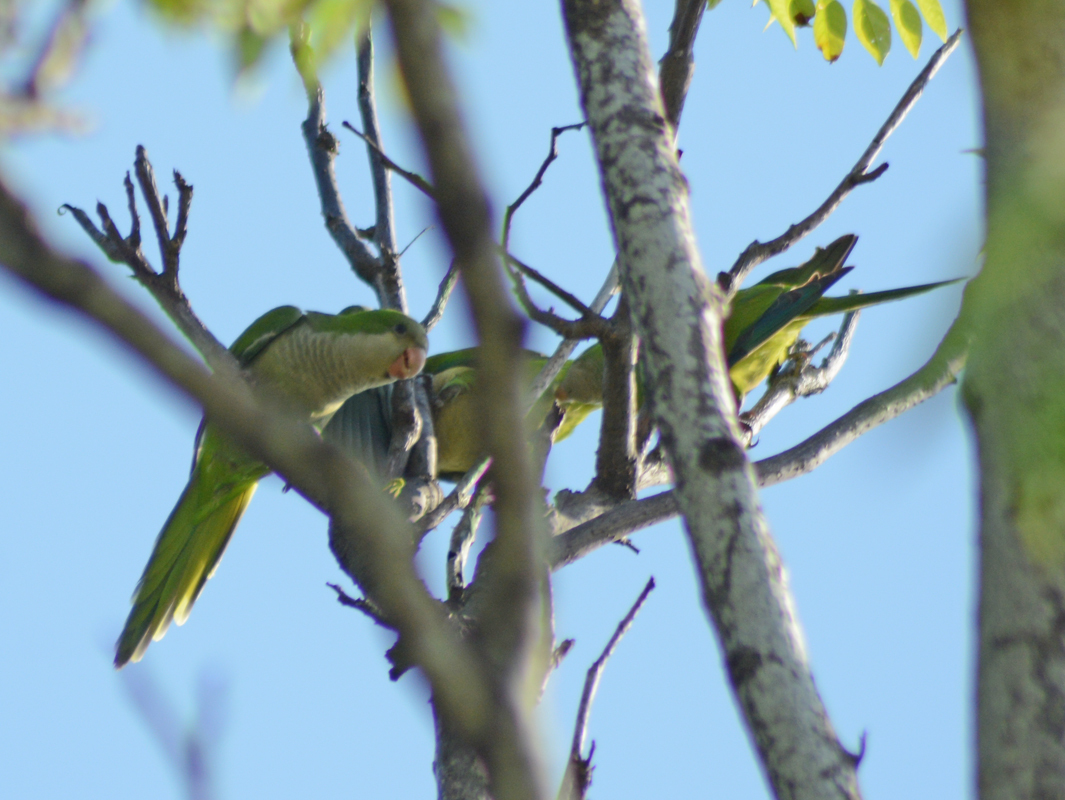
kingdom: Animalia
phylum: Chordata
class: Aves
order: Psittaciformes
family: Psittacidae
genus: Myiopsitta
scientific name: Myiopsitta monachus
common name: Monk parakeet
